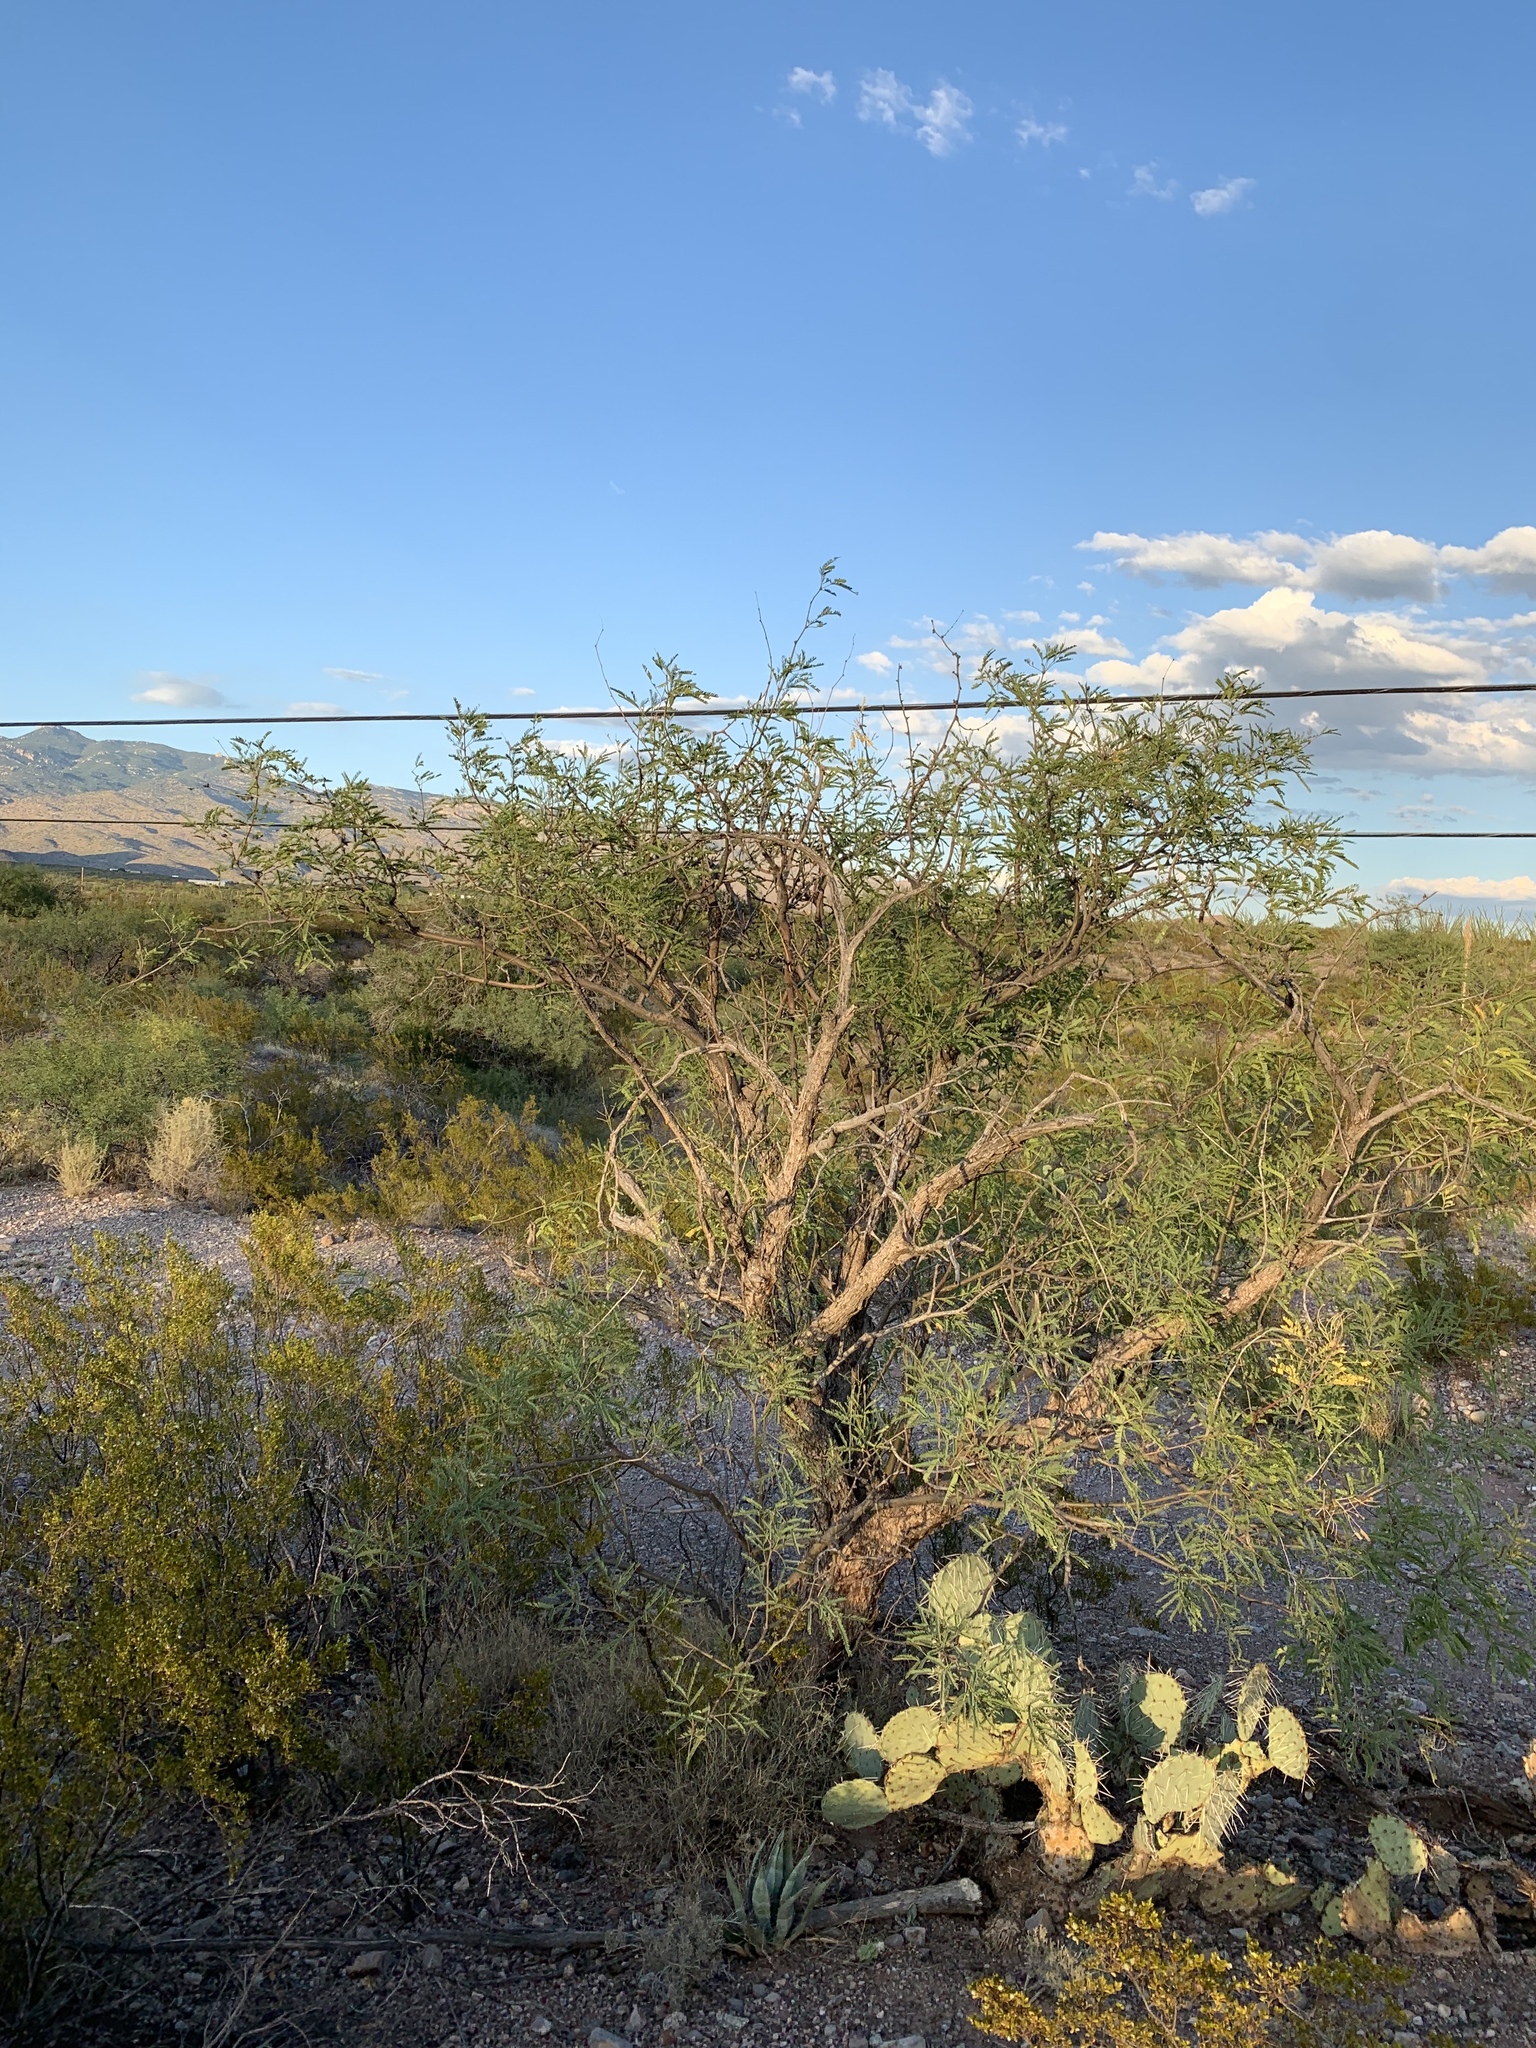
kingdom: Plantae
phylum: Tracheophyta
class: Magnoliopsida
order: Fabales
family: Fabaceae
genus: Prosopis
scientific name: Prosopis velutina
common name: Velvet mesquite
